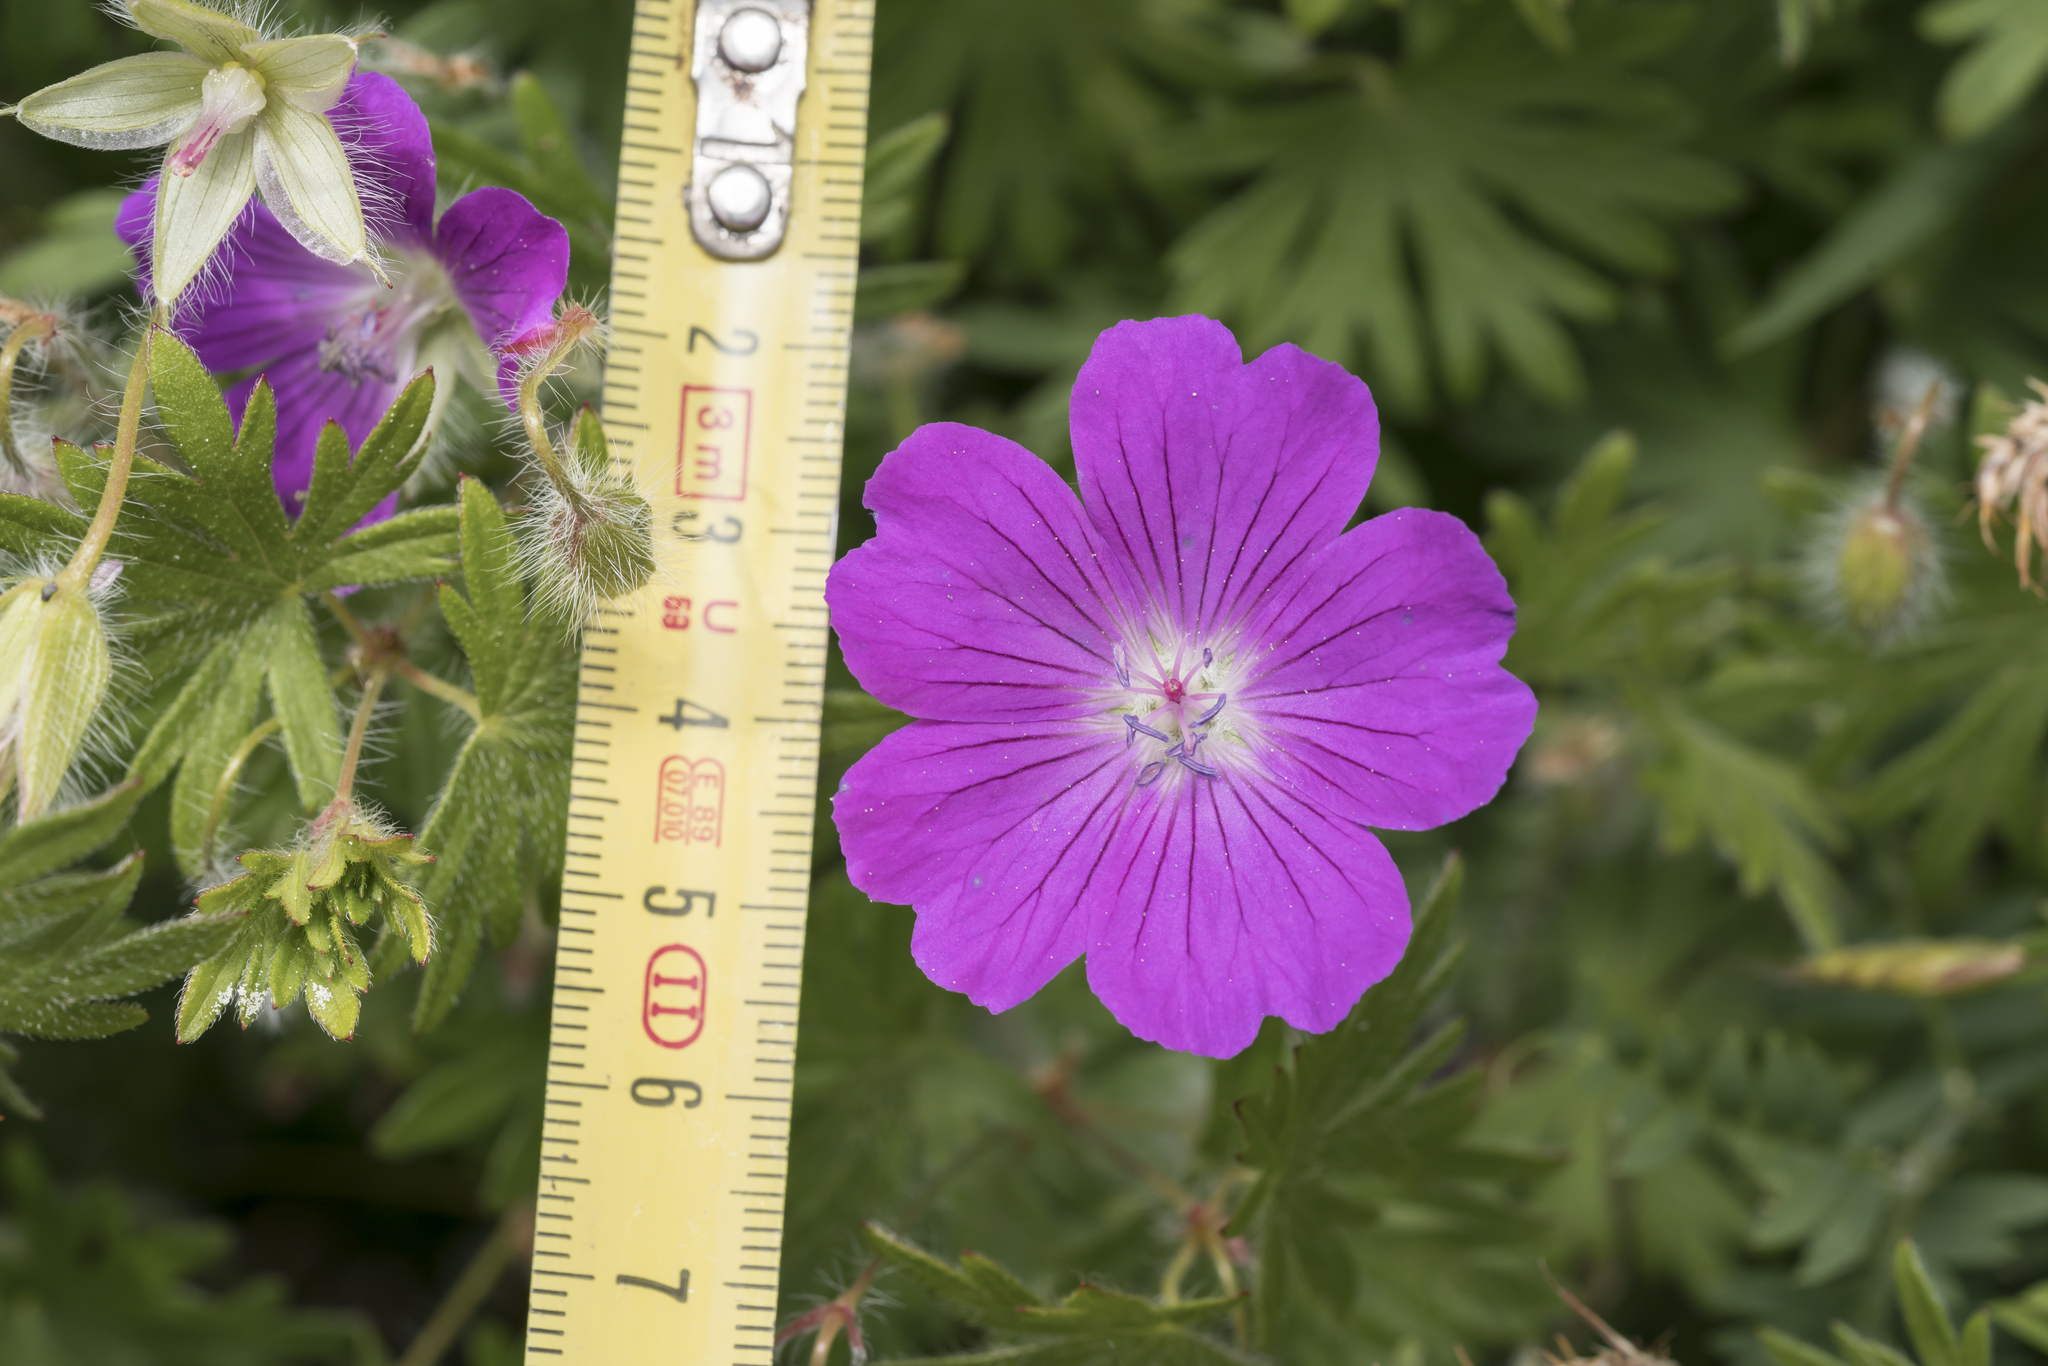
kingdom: Plantae
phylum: Tracheophyta
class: Magnoliopsida
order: Geraniales
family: Geraniaceae
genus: Geranium
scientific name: Geranium sanguineum
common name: Bloody crane's-bill
